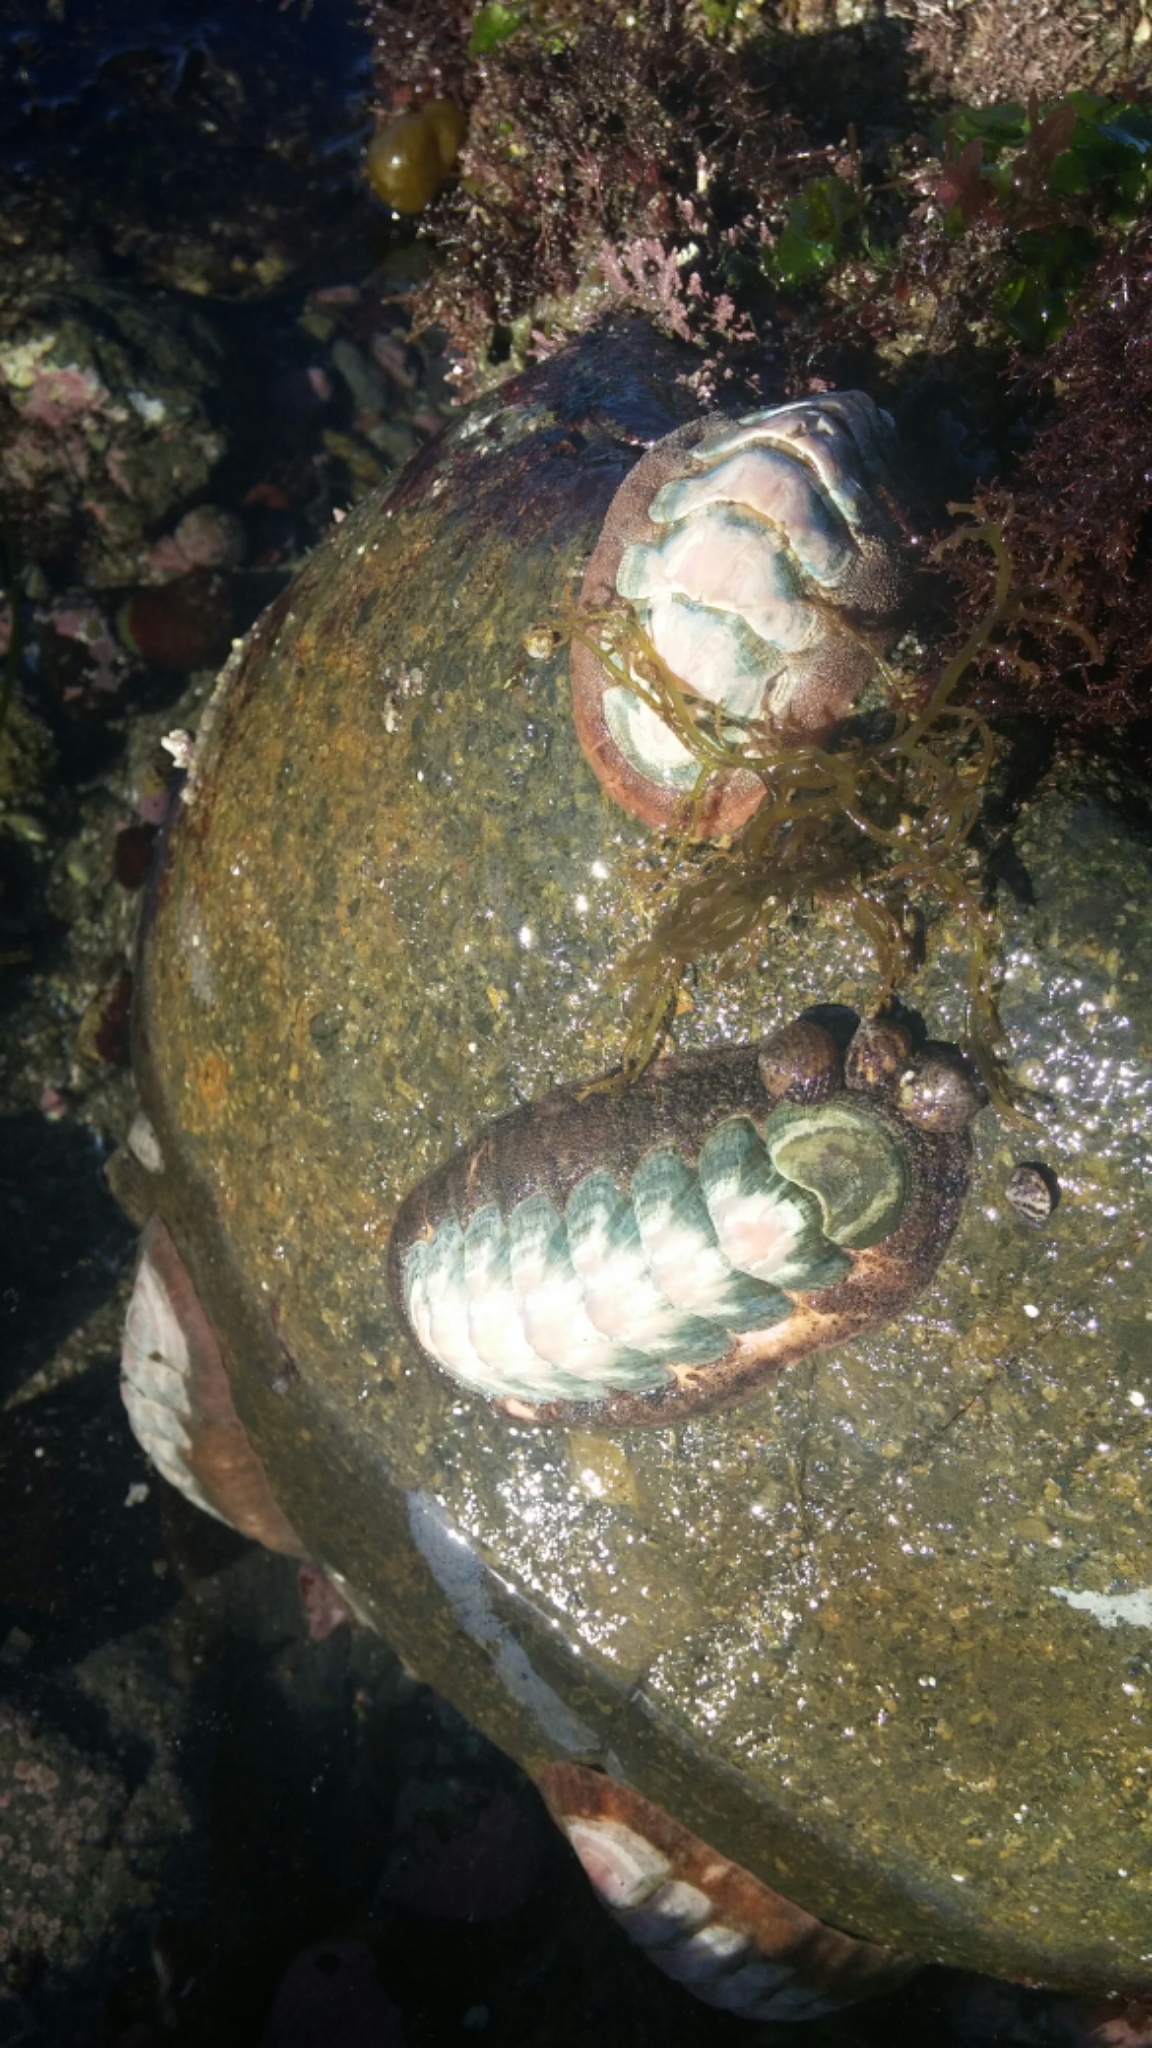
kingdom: Animalia
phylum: Mollusca
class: Polyplacophora
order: Chitonida
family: Ischnochitonidae
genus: Stenoplax
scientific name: Stenoplax conspicua
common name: Conspicuous chiton
